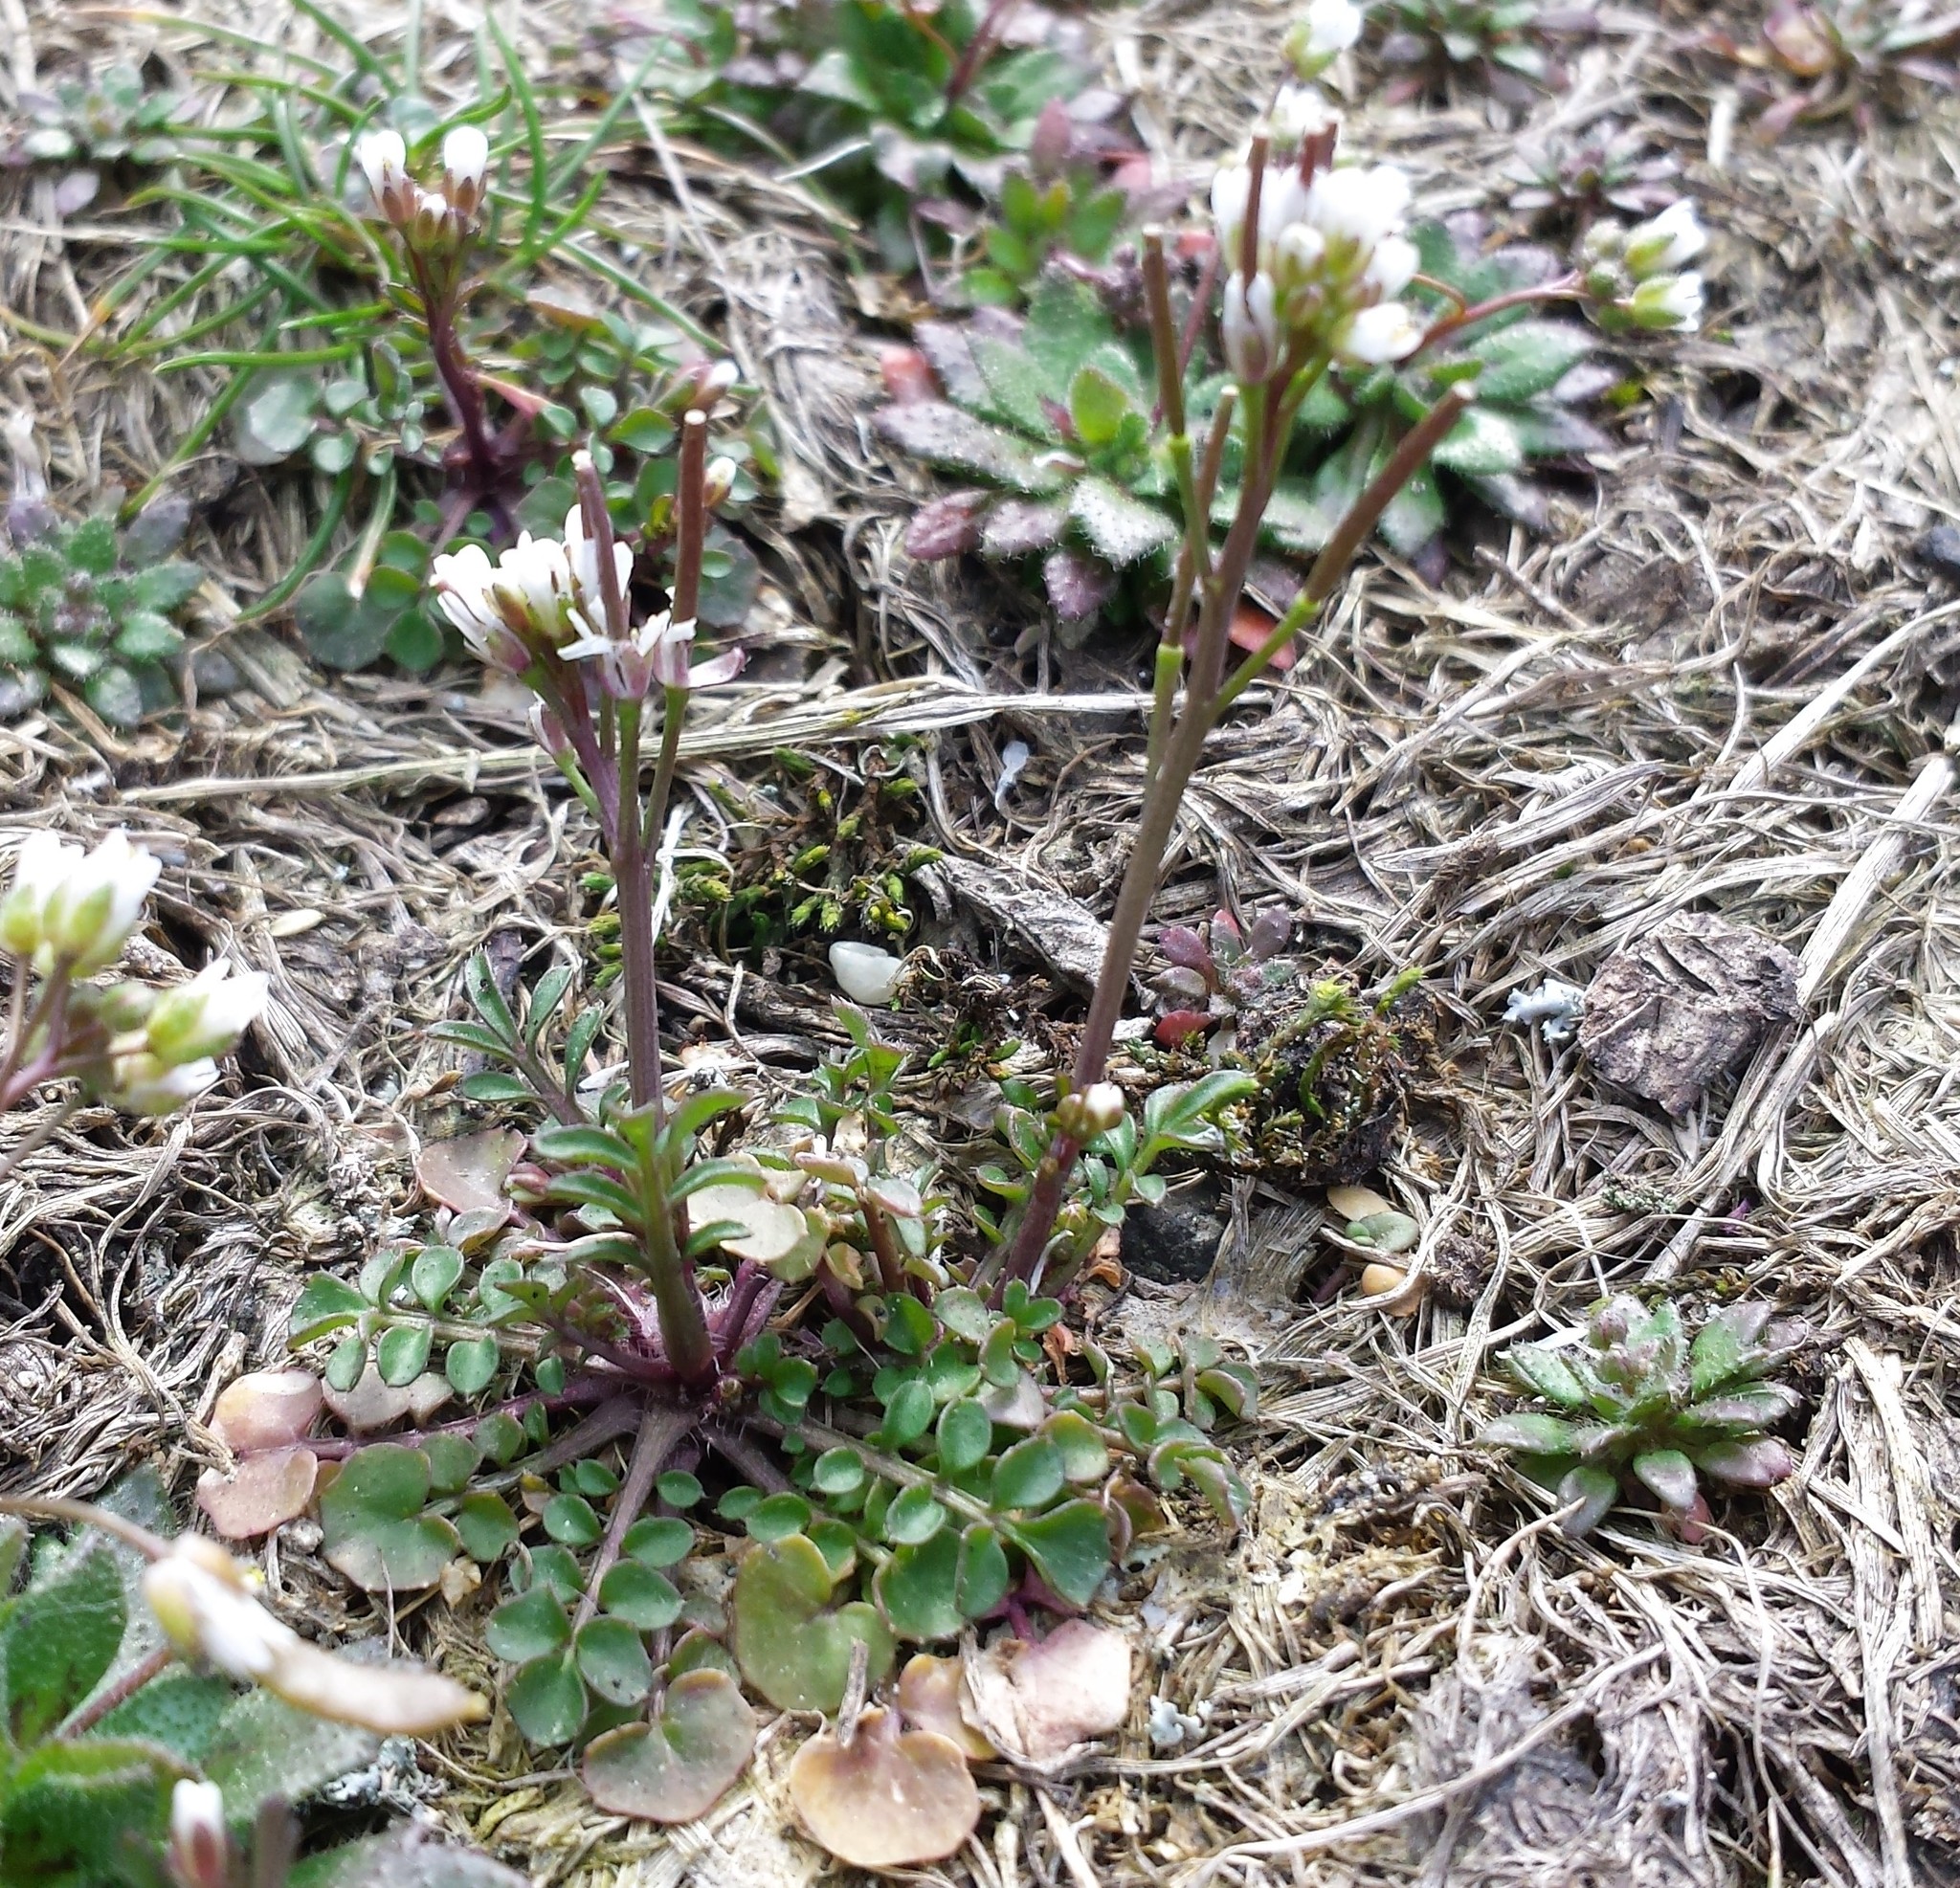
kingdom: Plantae
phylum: Tracheophyta
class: Magnoliopsida
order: Brassicales
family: Brassicaceae
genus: Cardamine
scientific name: Cardamine hirsuta
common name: Hairy bittercress
